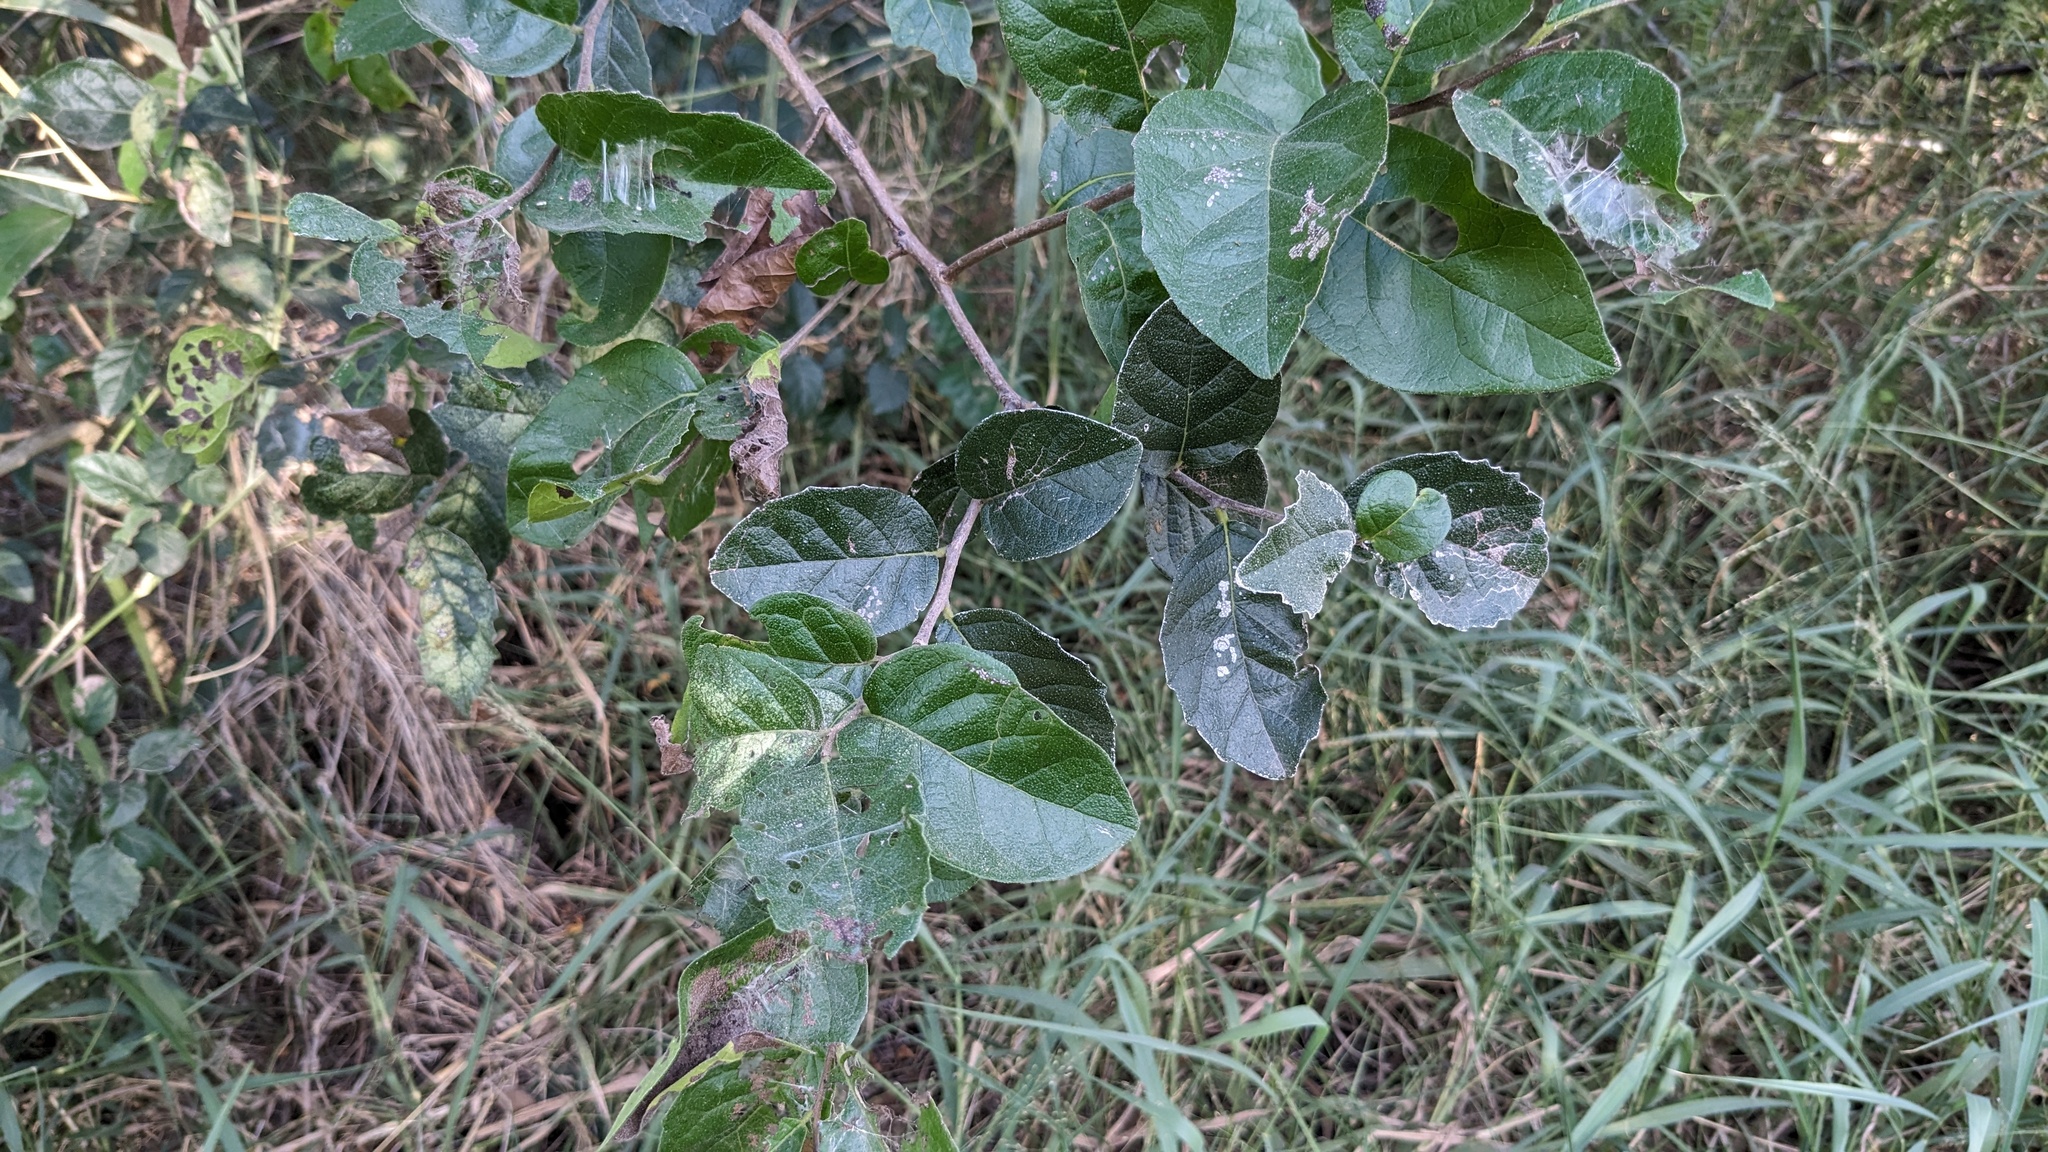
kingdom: Plantae
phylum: Tracheophyta
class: Magnoliopsida
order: Boraginales
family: Ehretiaceae
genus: Ehretia
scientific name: Ehretia anacua
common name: Sugarberry
